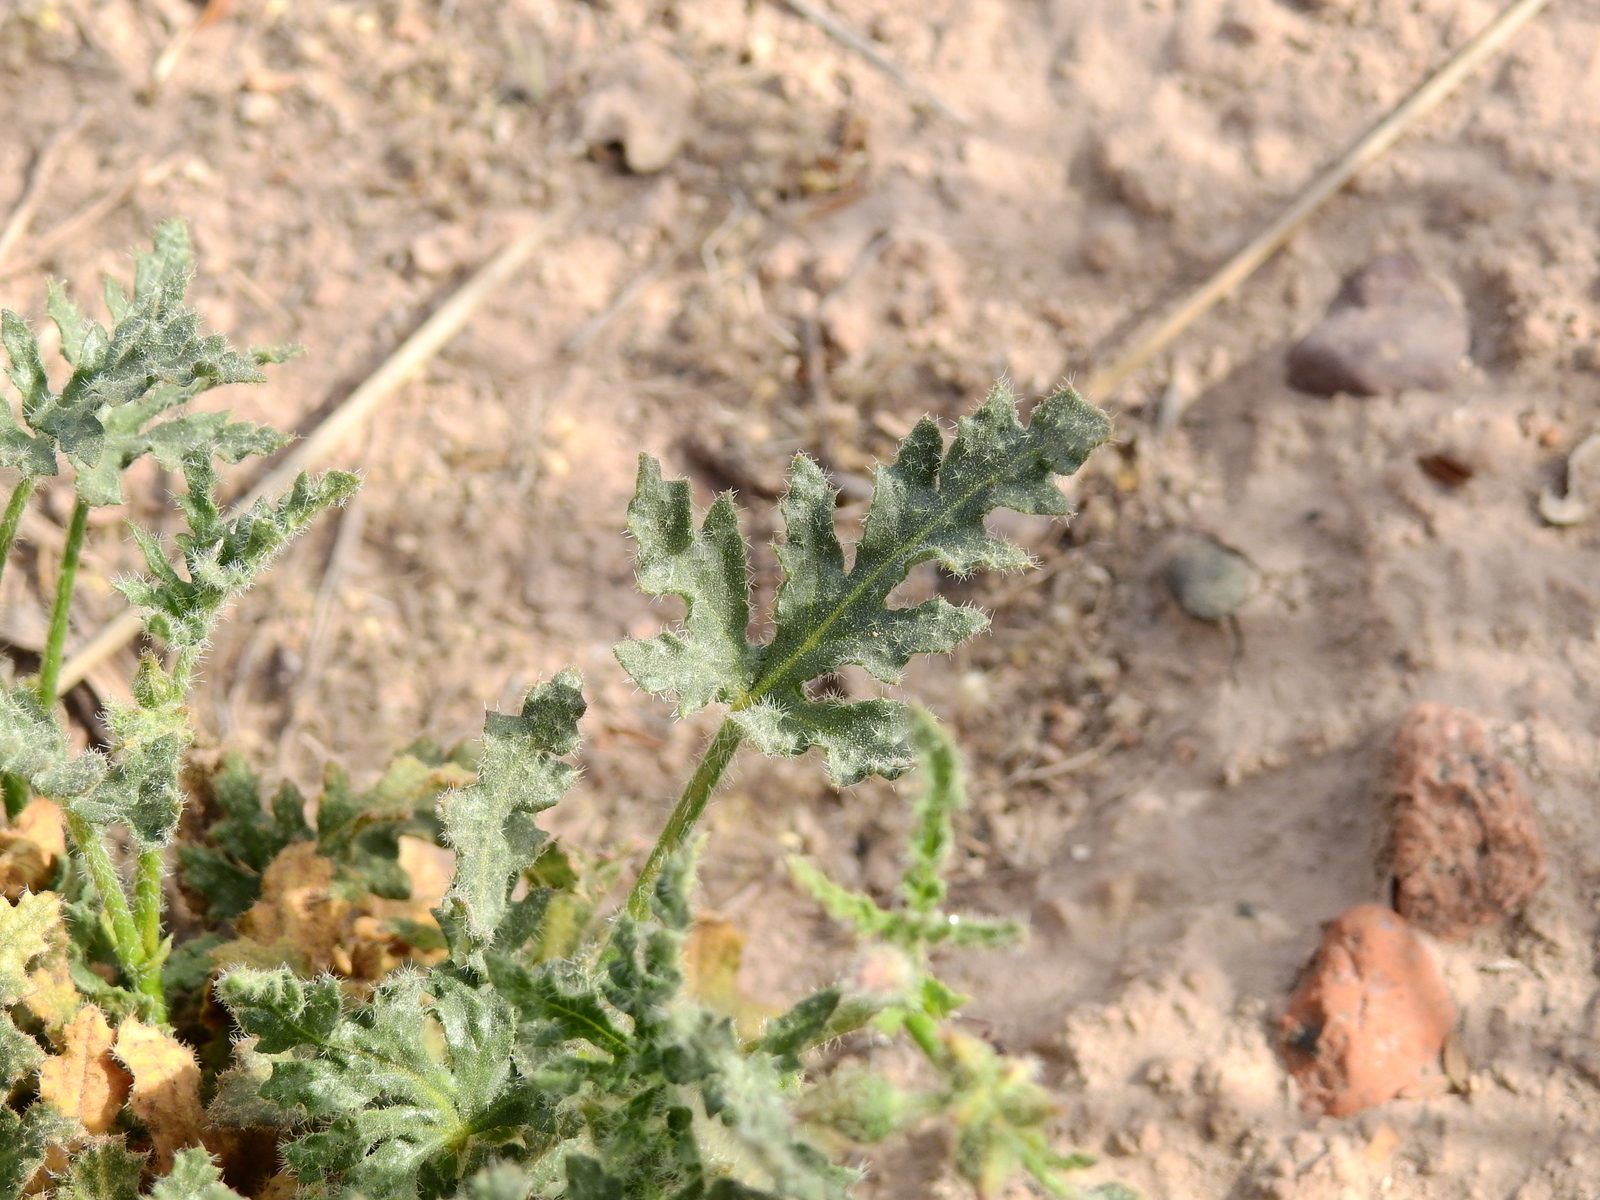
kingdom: Plantae
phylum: Tracheophyta
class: Magnoliopsida
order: Malvales
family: Malvaceae
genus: Lecanophora
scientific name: Lecanophora heterophylla
